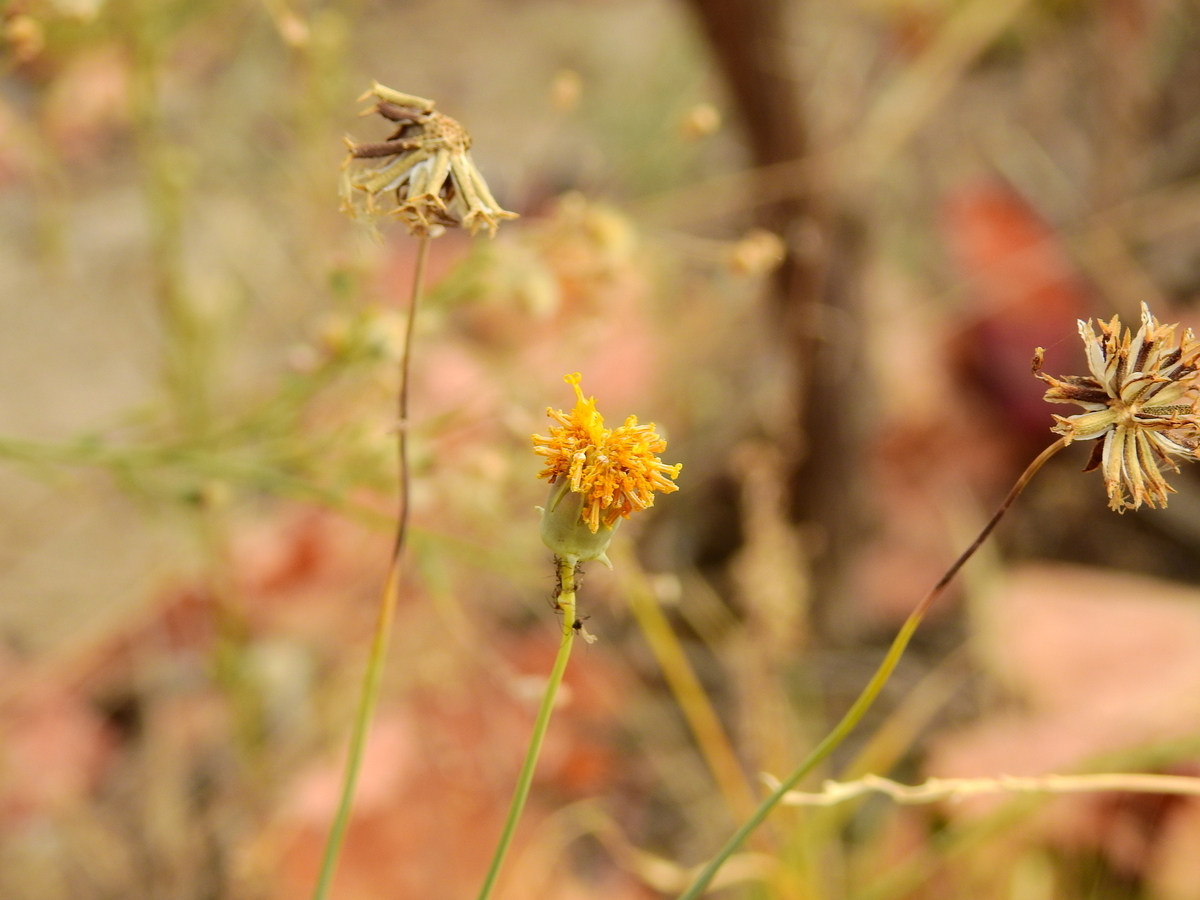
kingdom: Plantae
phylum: Tracheophyta
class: Magnoliopsida
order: Asterales
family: Asteraceae
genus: Thelesperma
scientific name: Thelesperma megapotamicum
